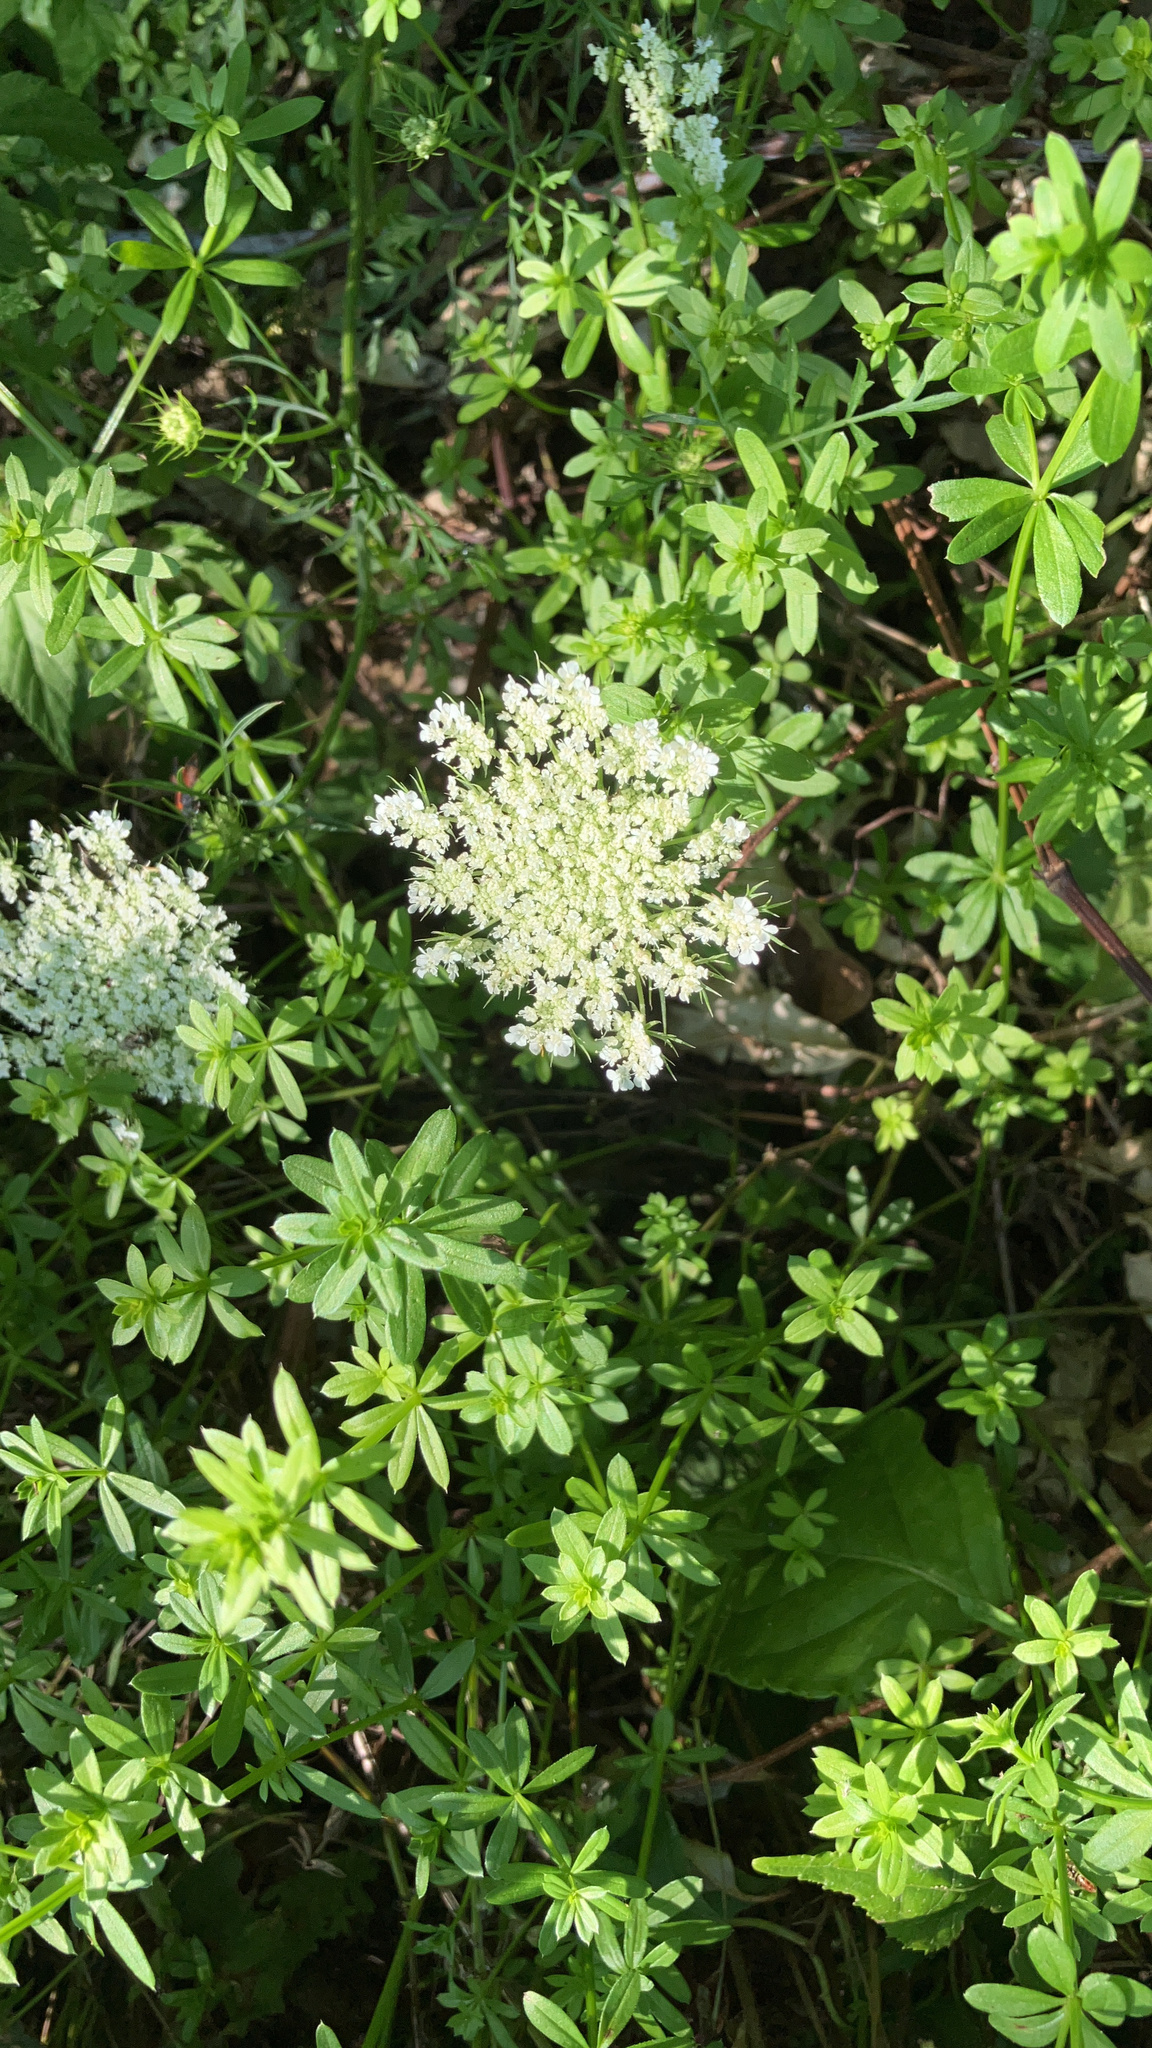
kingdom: Plantae
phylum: Tracheophyta
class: Magnoliopsida
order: Apiales
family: Apiaceae
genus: Daucus
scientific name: Daucus carota
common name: Wild carrot
